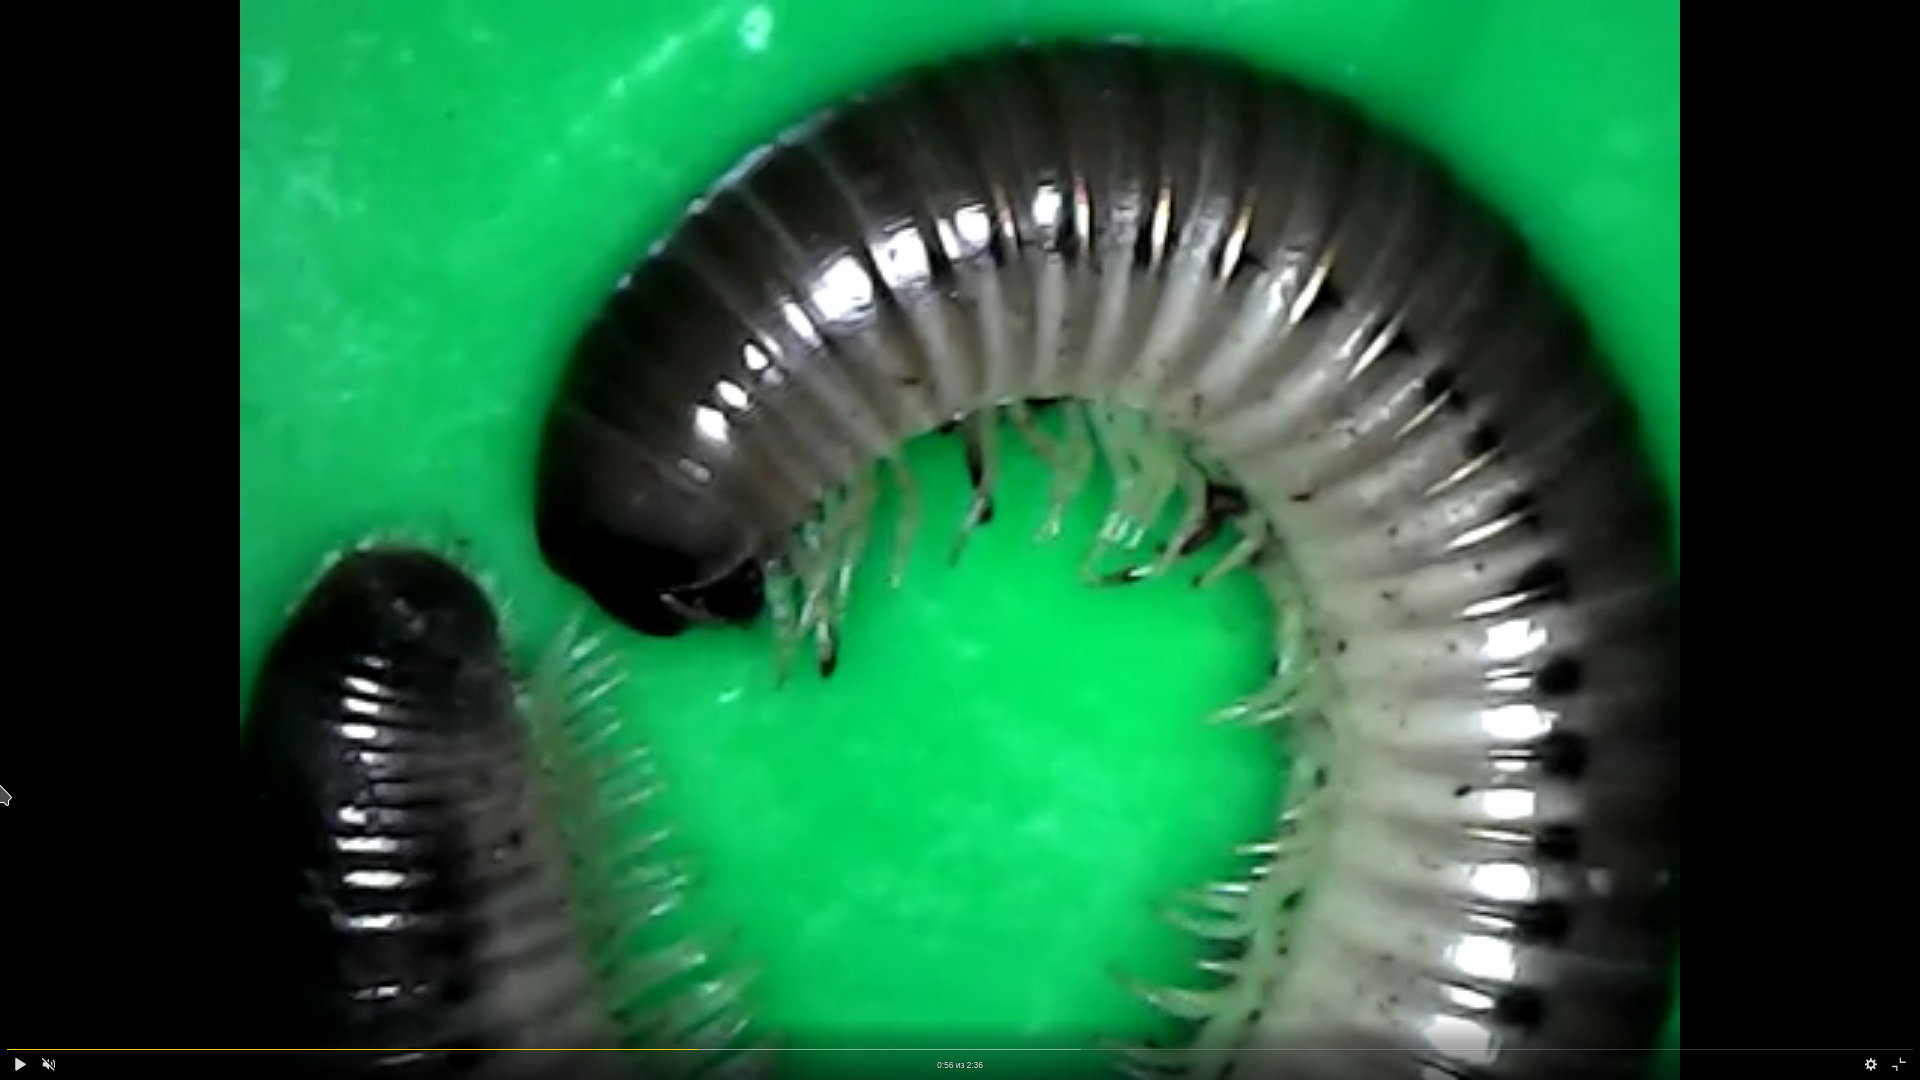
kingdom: Animalia
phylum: Arthropoda
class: Diplopoda
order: Julida
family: Julidae
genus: Pachyiulus
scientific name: Pachyiulus flavipes
